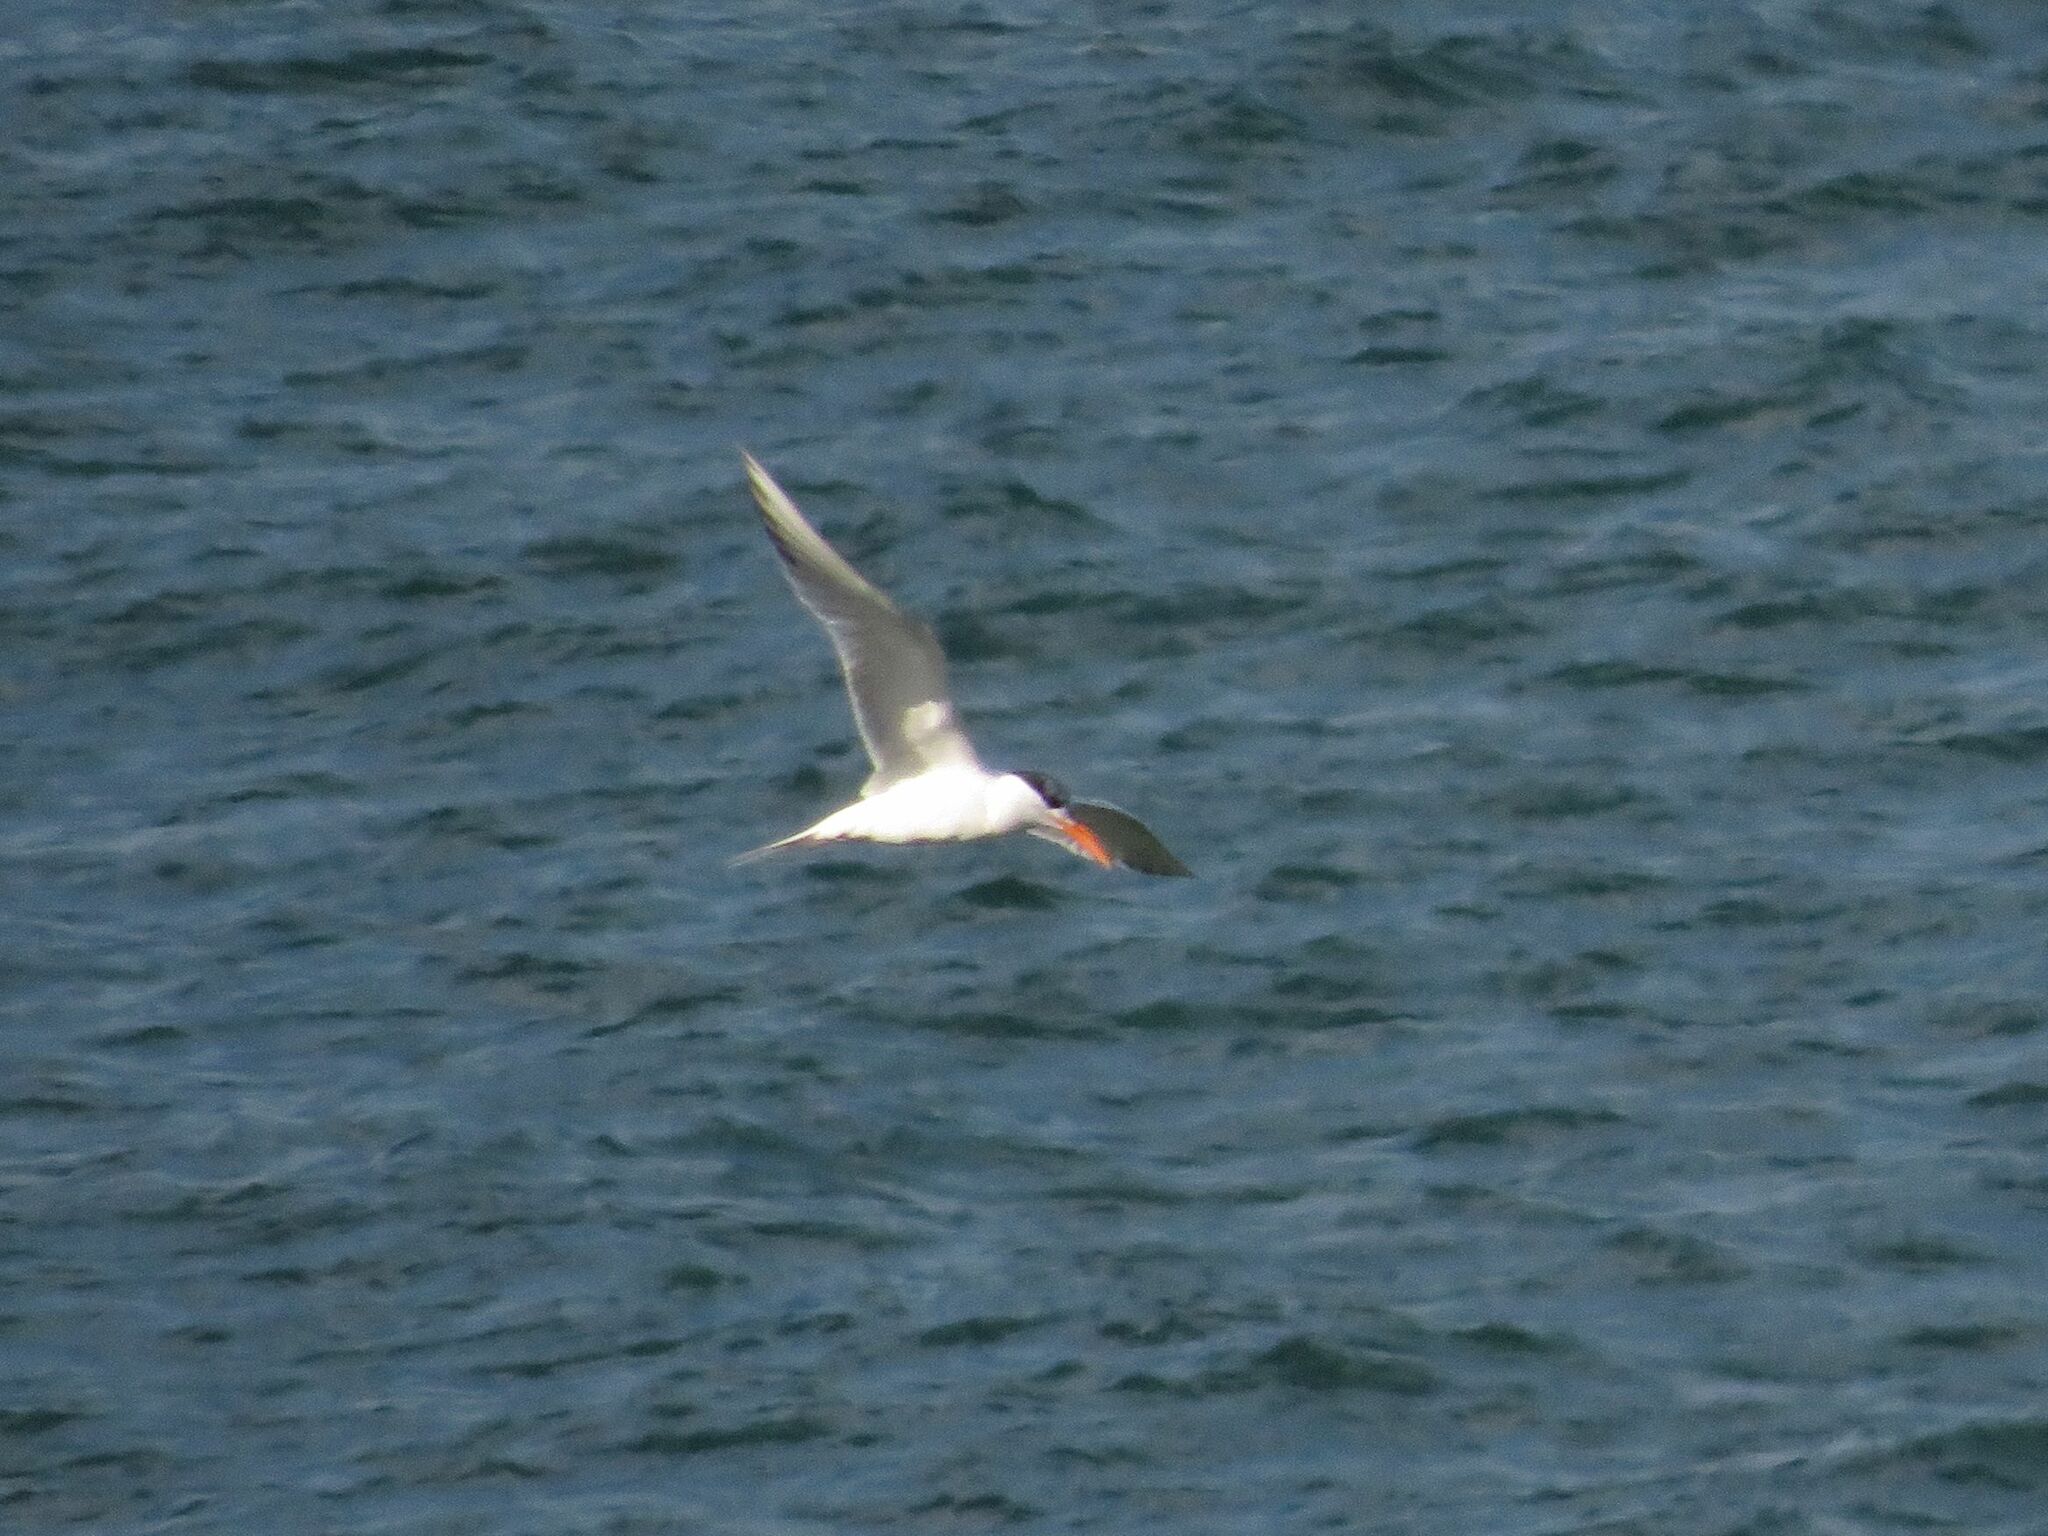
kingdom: Animalia
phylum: Chordata
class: Aves
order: Charadriiformes
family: Laridae
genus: Thalasseus
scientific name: Thalasseus maximus
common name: Royal tern
